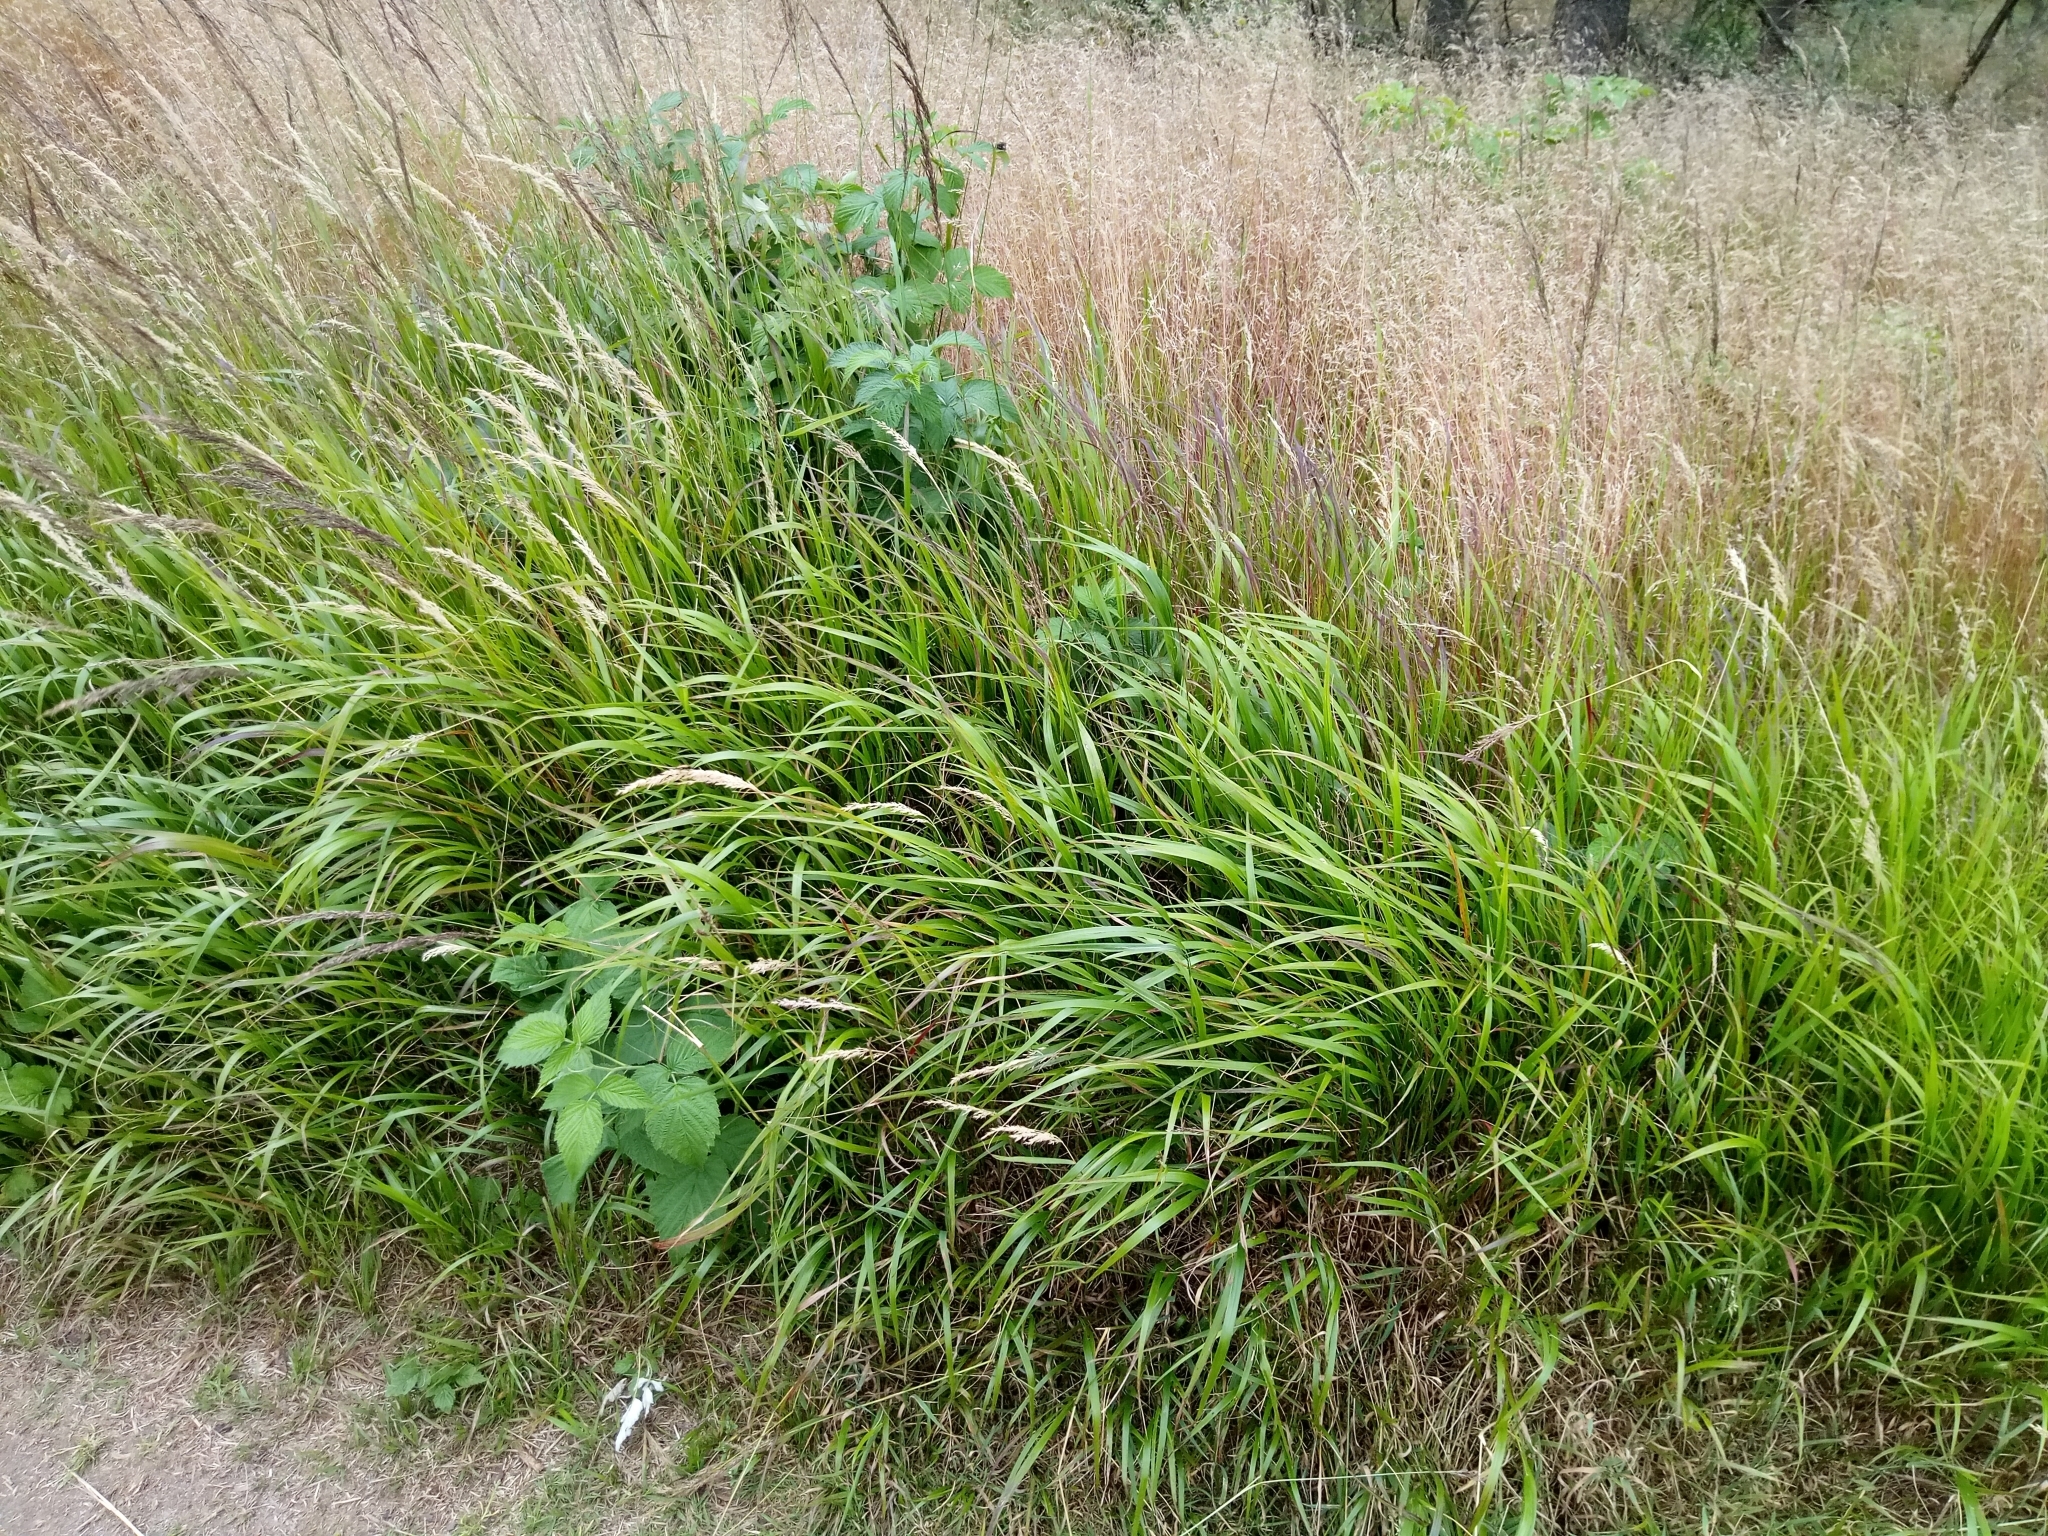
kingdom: Plantae
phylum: Tracheophyta
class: Liliopsida
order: Poales
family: Poaceae
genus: Calamagrostis
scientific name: Calamagrostis villosa
